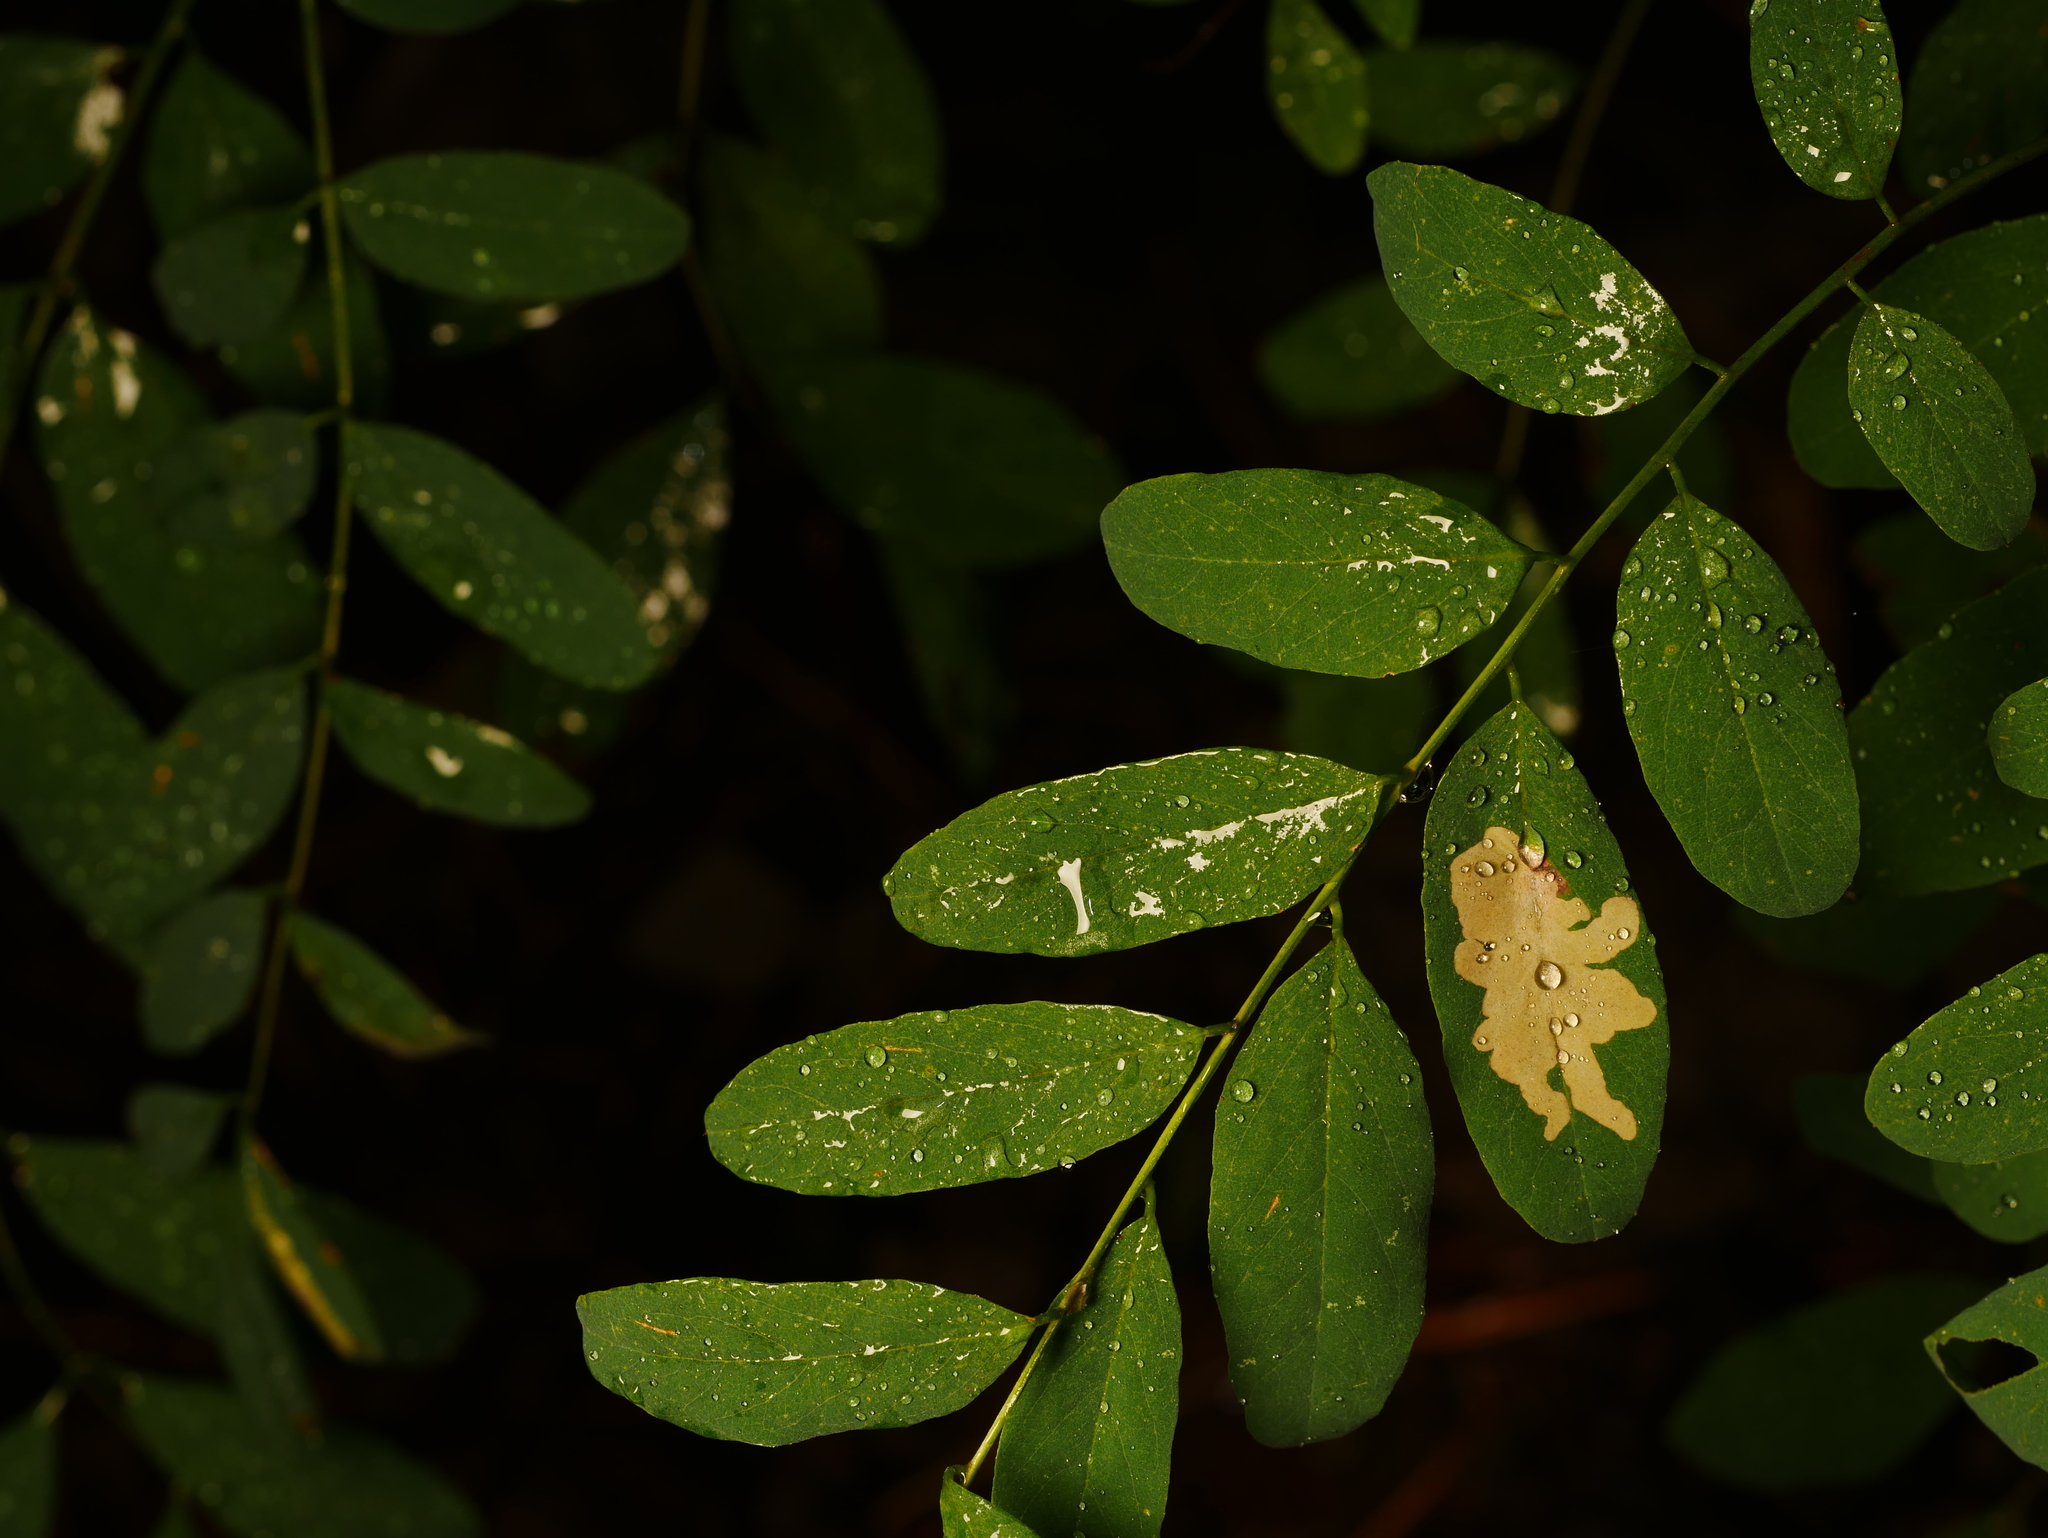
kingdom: Plantae
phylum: Tracheophyta
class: Magnoliopsida
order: Fabales
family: Fabaceae
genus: Robinia
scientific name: Robinia pseudoacacia
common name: Black locust
